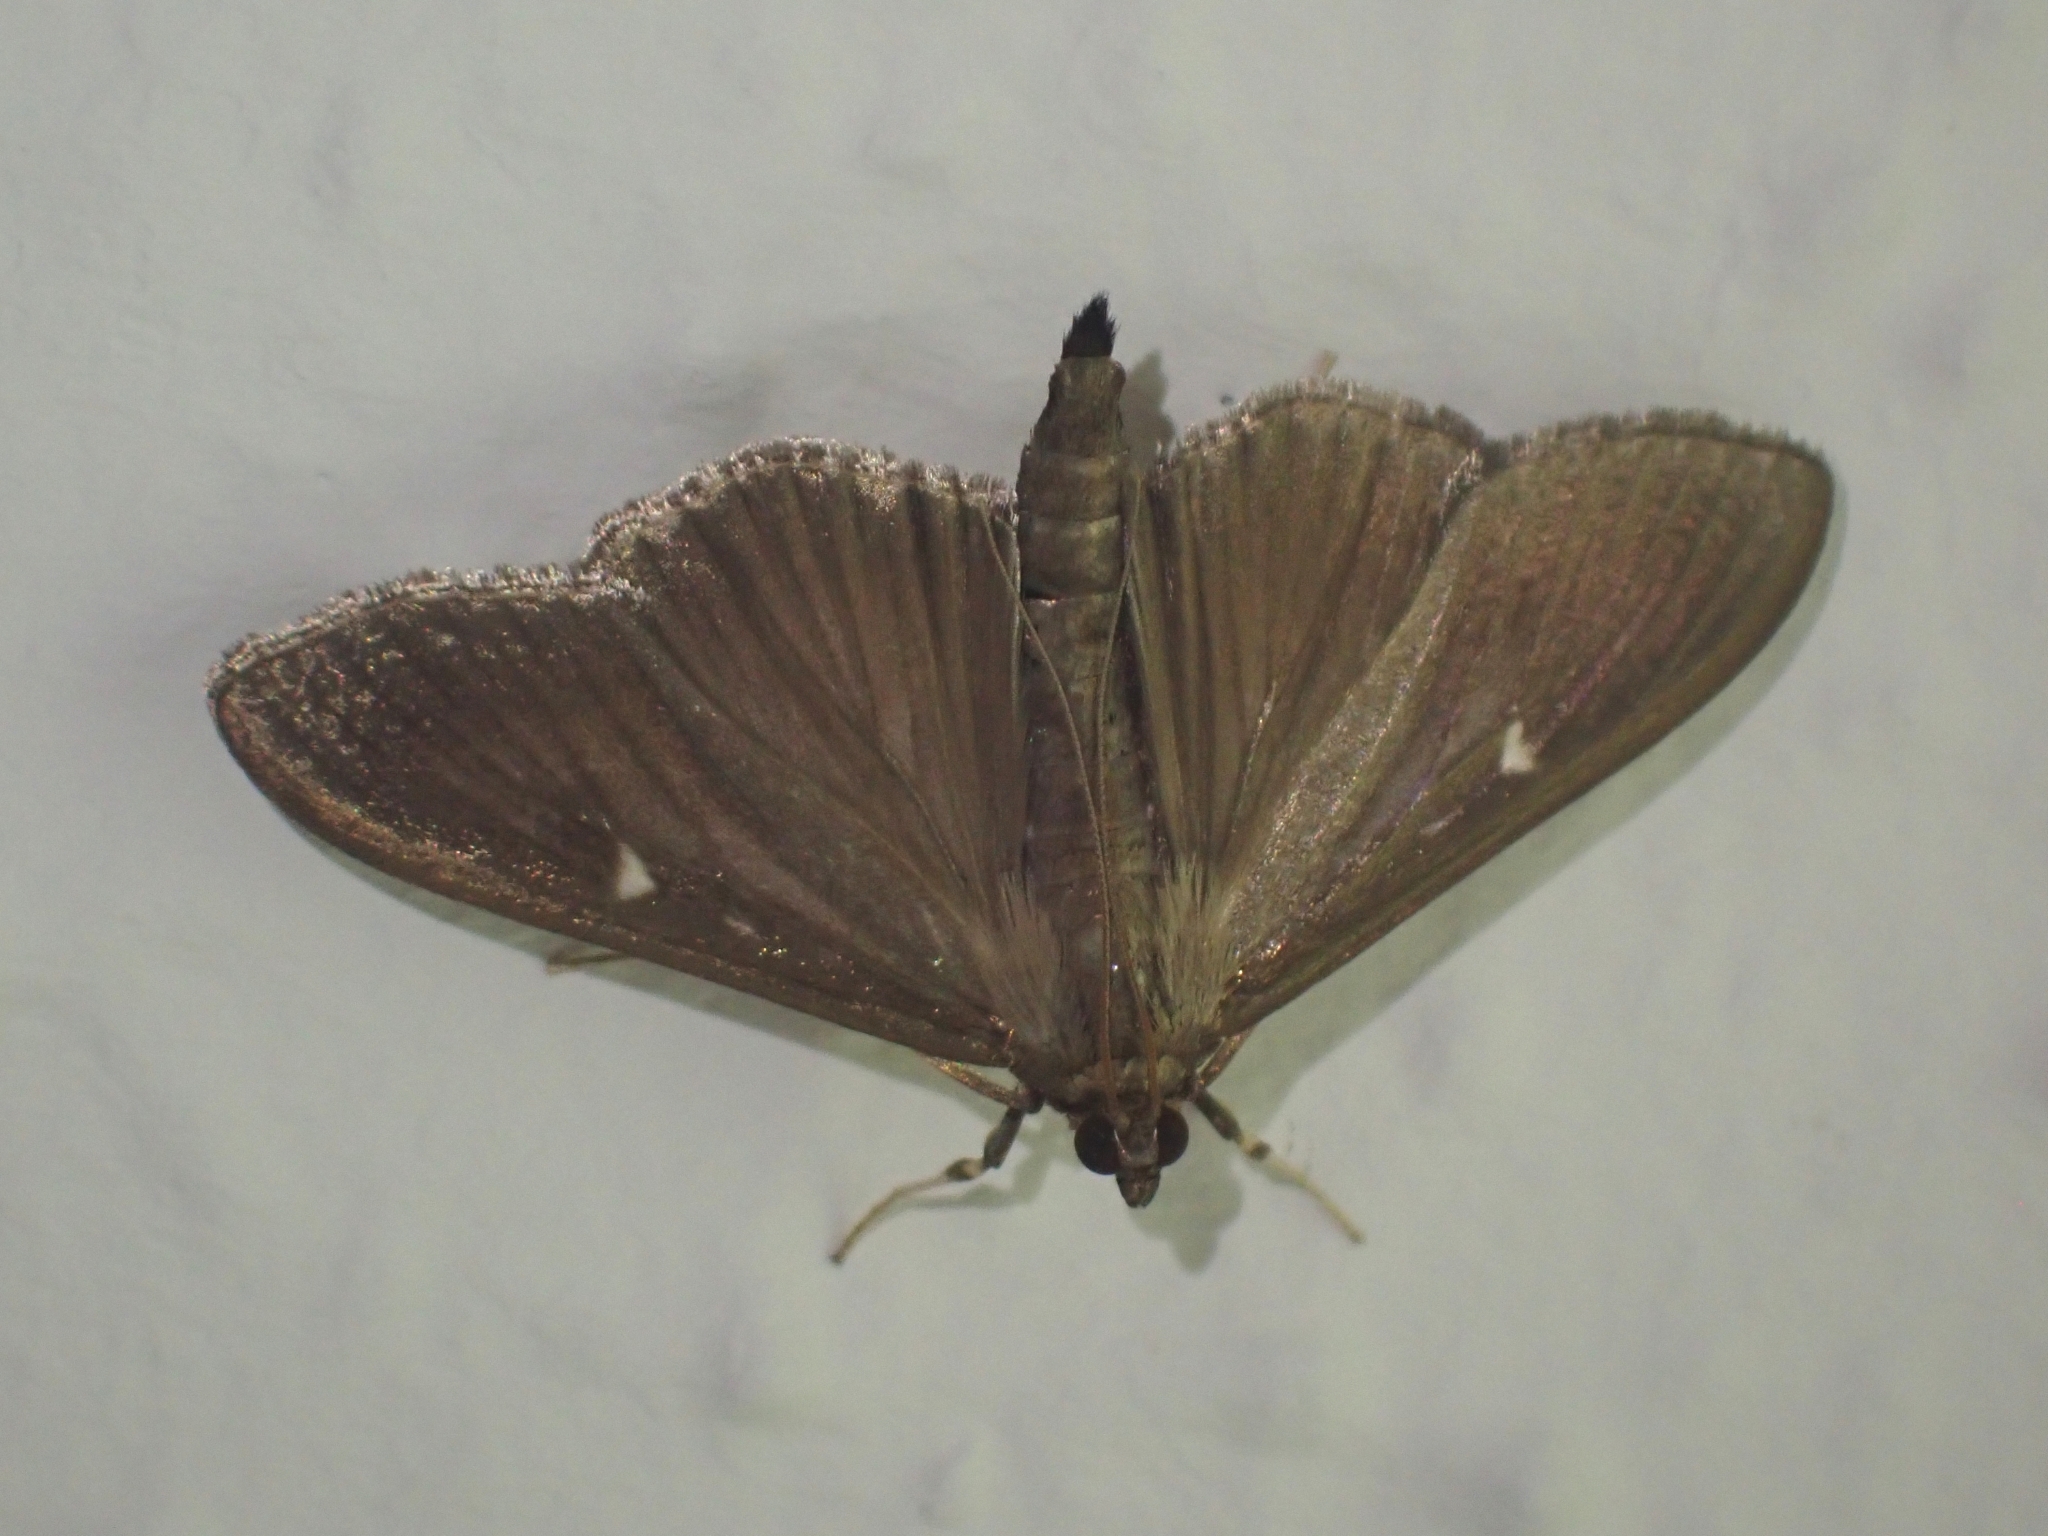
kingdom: Animalia
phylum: Arthropoda
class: Insecta
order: Lepidoptera
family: Crambidae
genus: Cydalima
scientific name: Cydalima perspectalis
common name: Box tree moth
